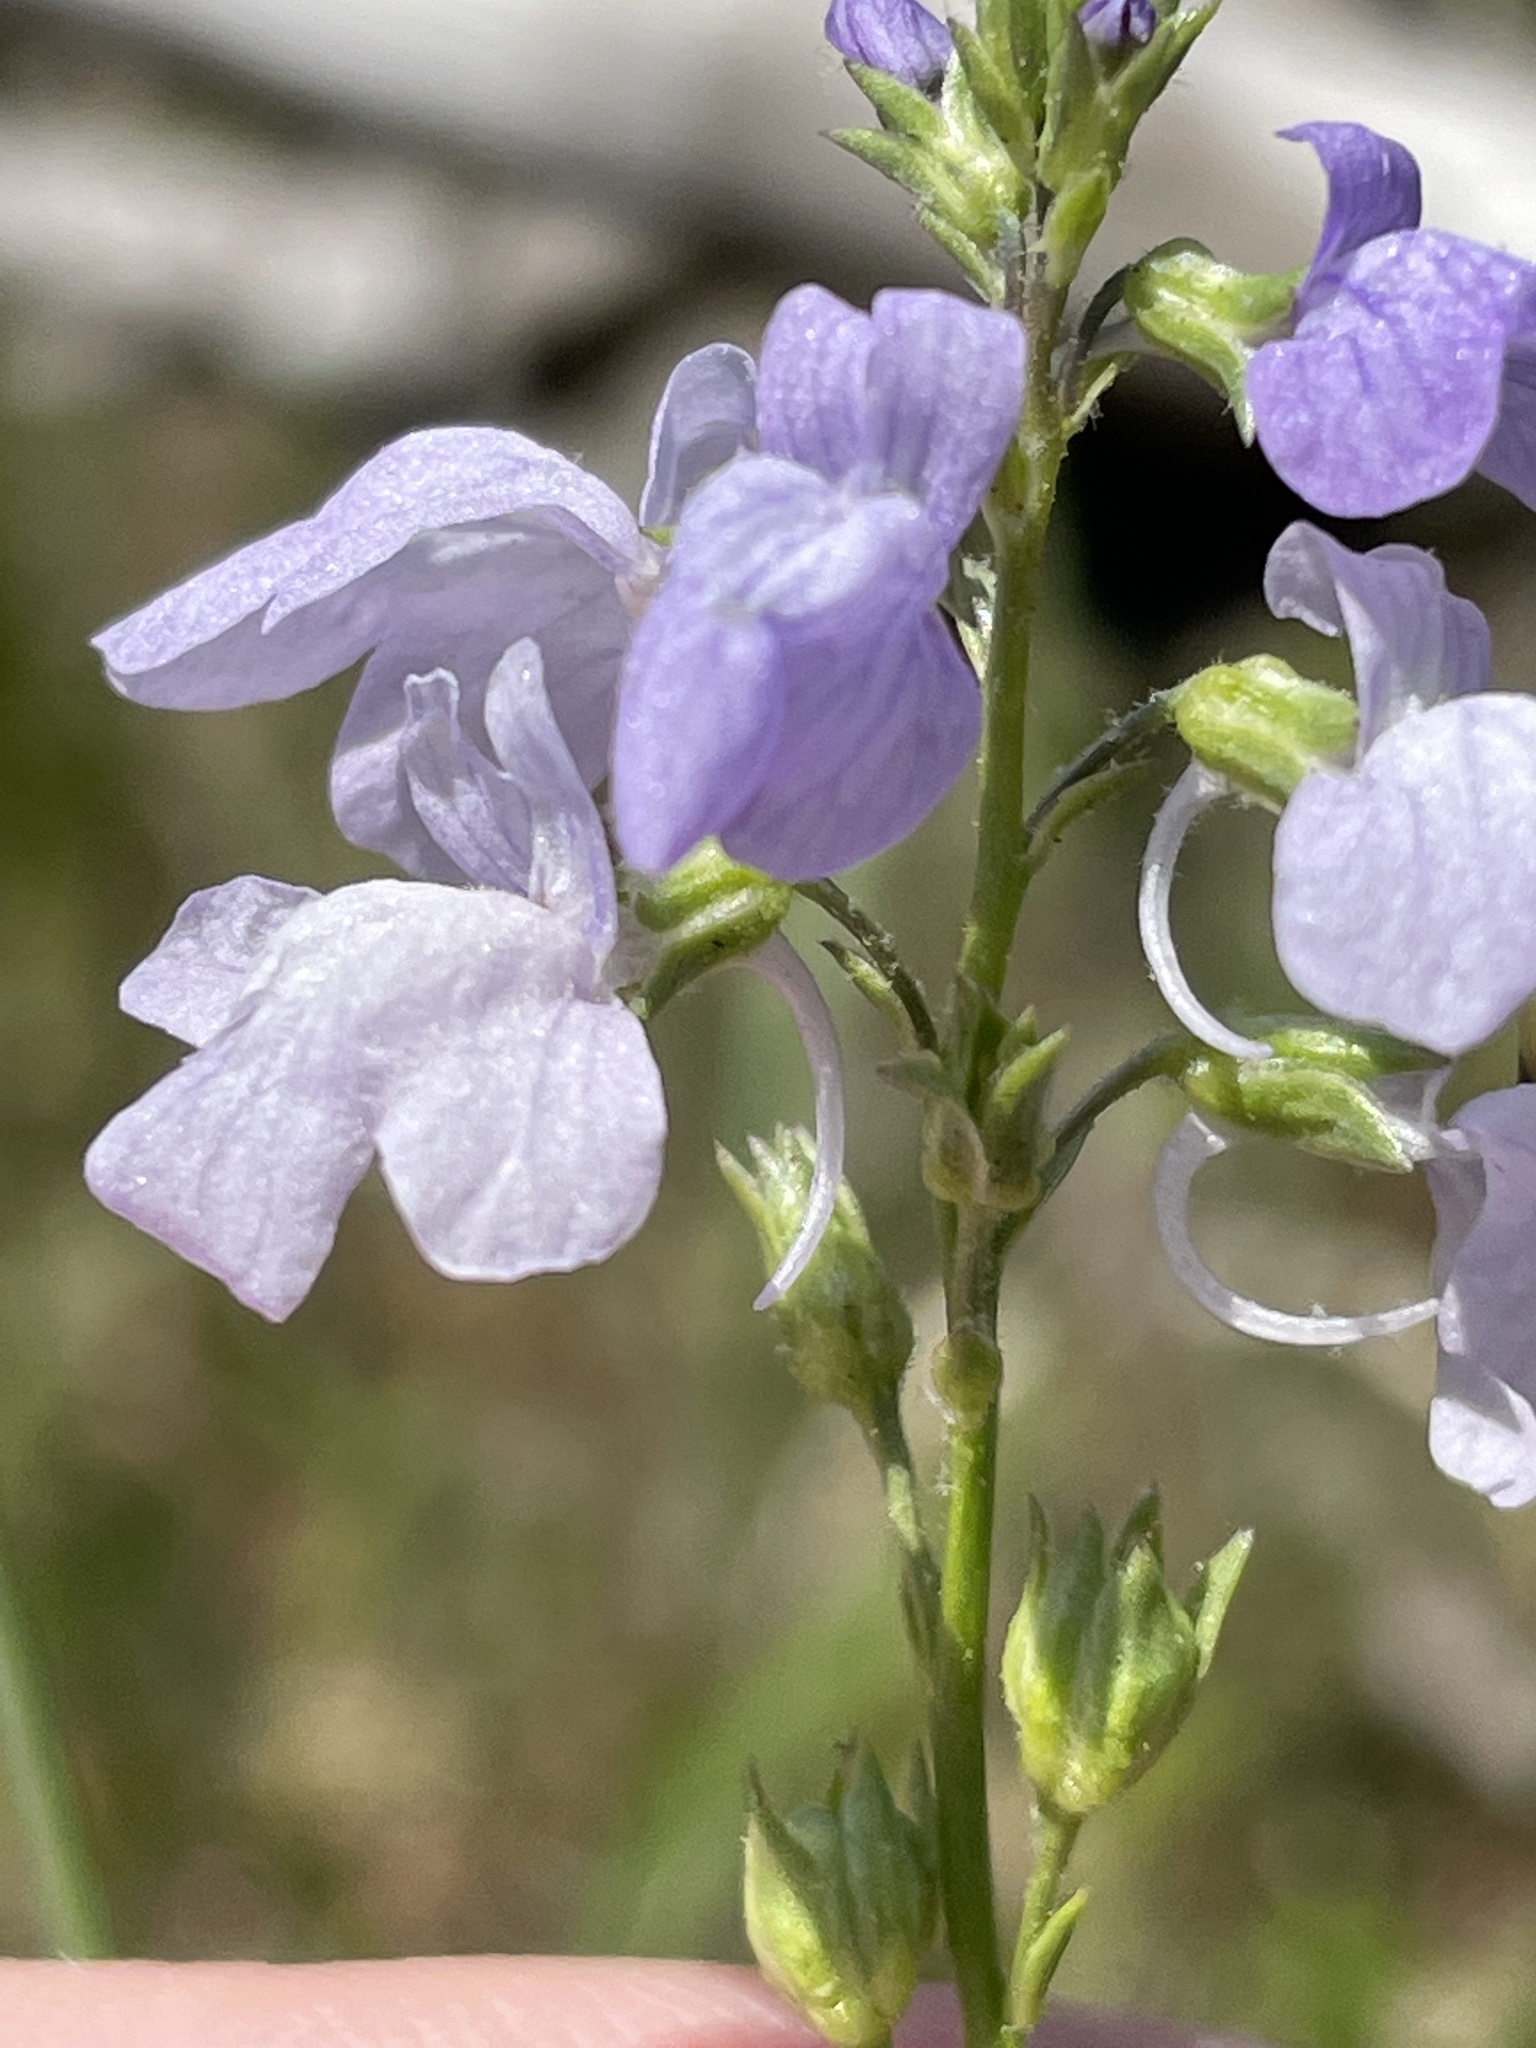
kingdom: Plantae
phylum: Tracheophyta
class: Magnoliopsida
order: Lamiales
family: Plantaginaceae
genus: Nuttallanthus
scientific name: Nuttallanthus texanus
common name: Texas toadflax
